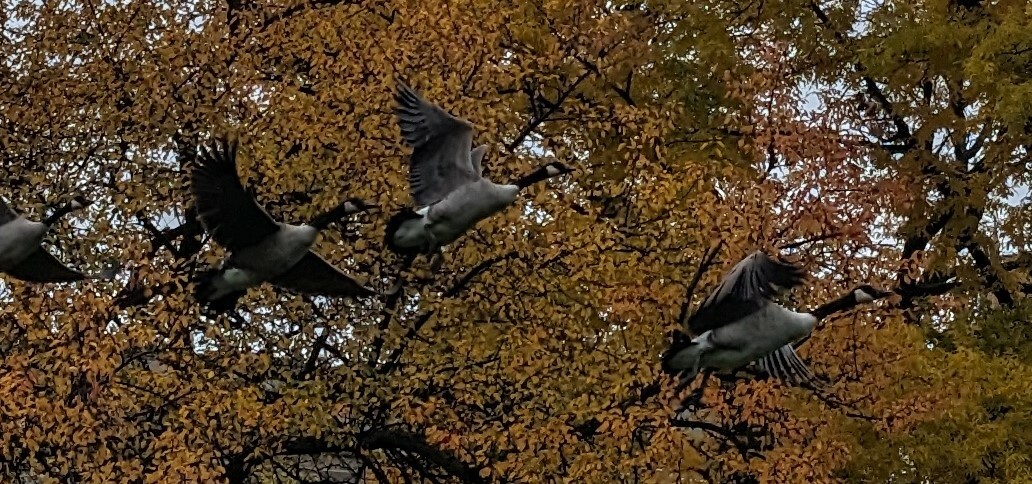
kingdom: Animalia
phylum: Chordata
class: Aves
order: Anseriformes
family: Anatidae
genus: Branta
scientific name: Branta canadensis
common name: Canada goose
